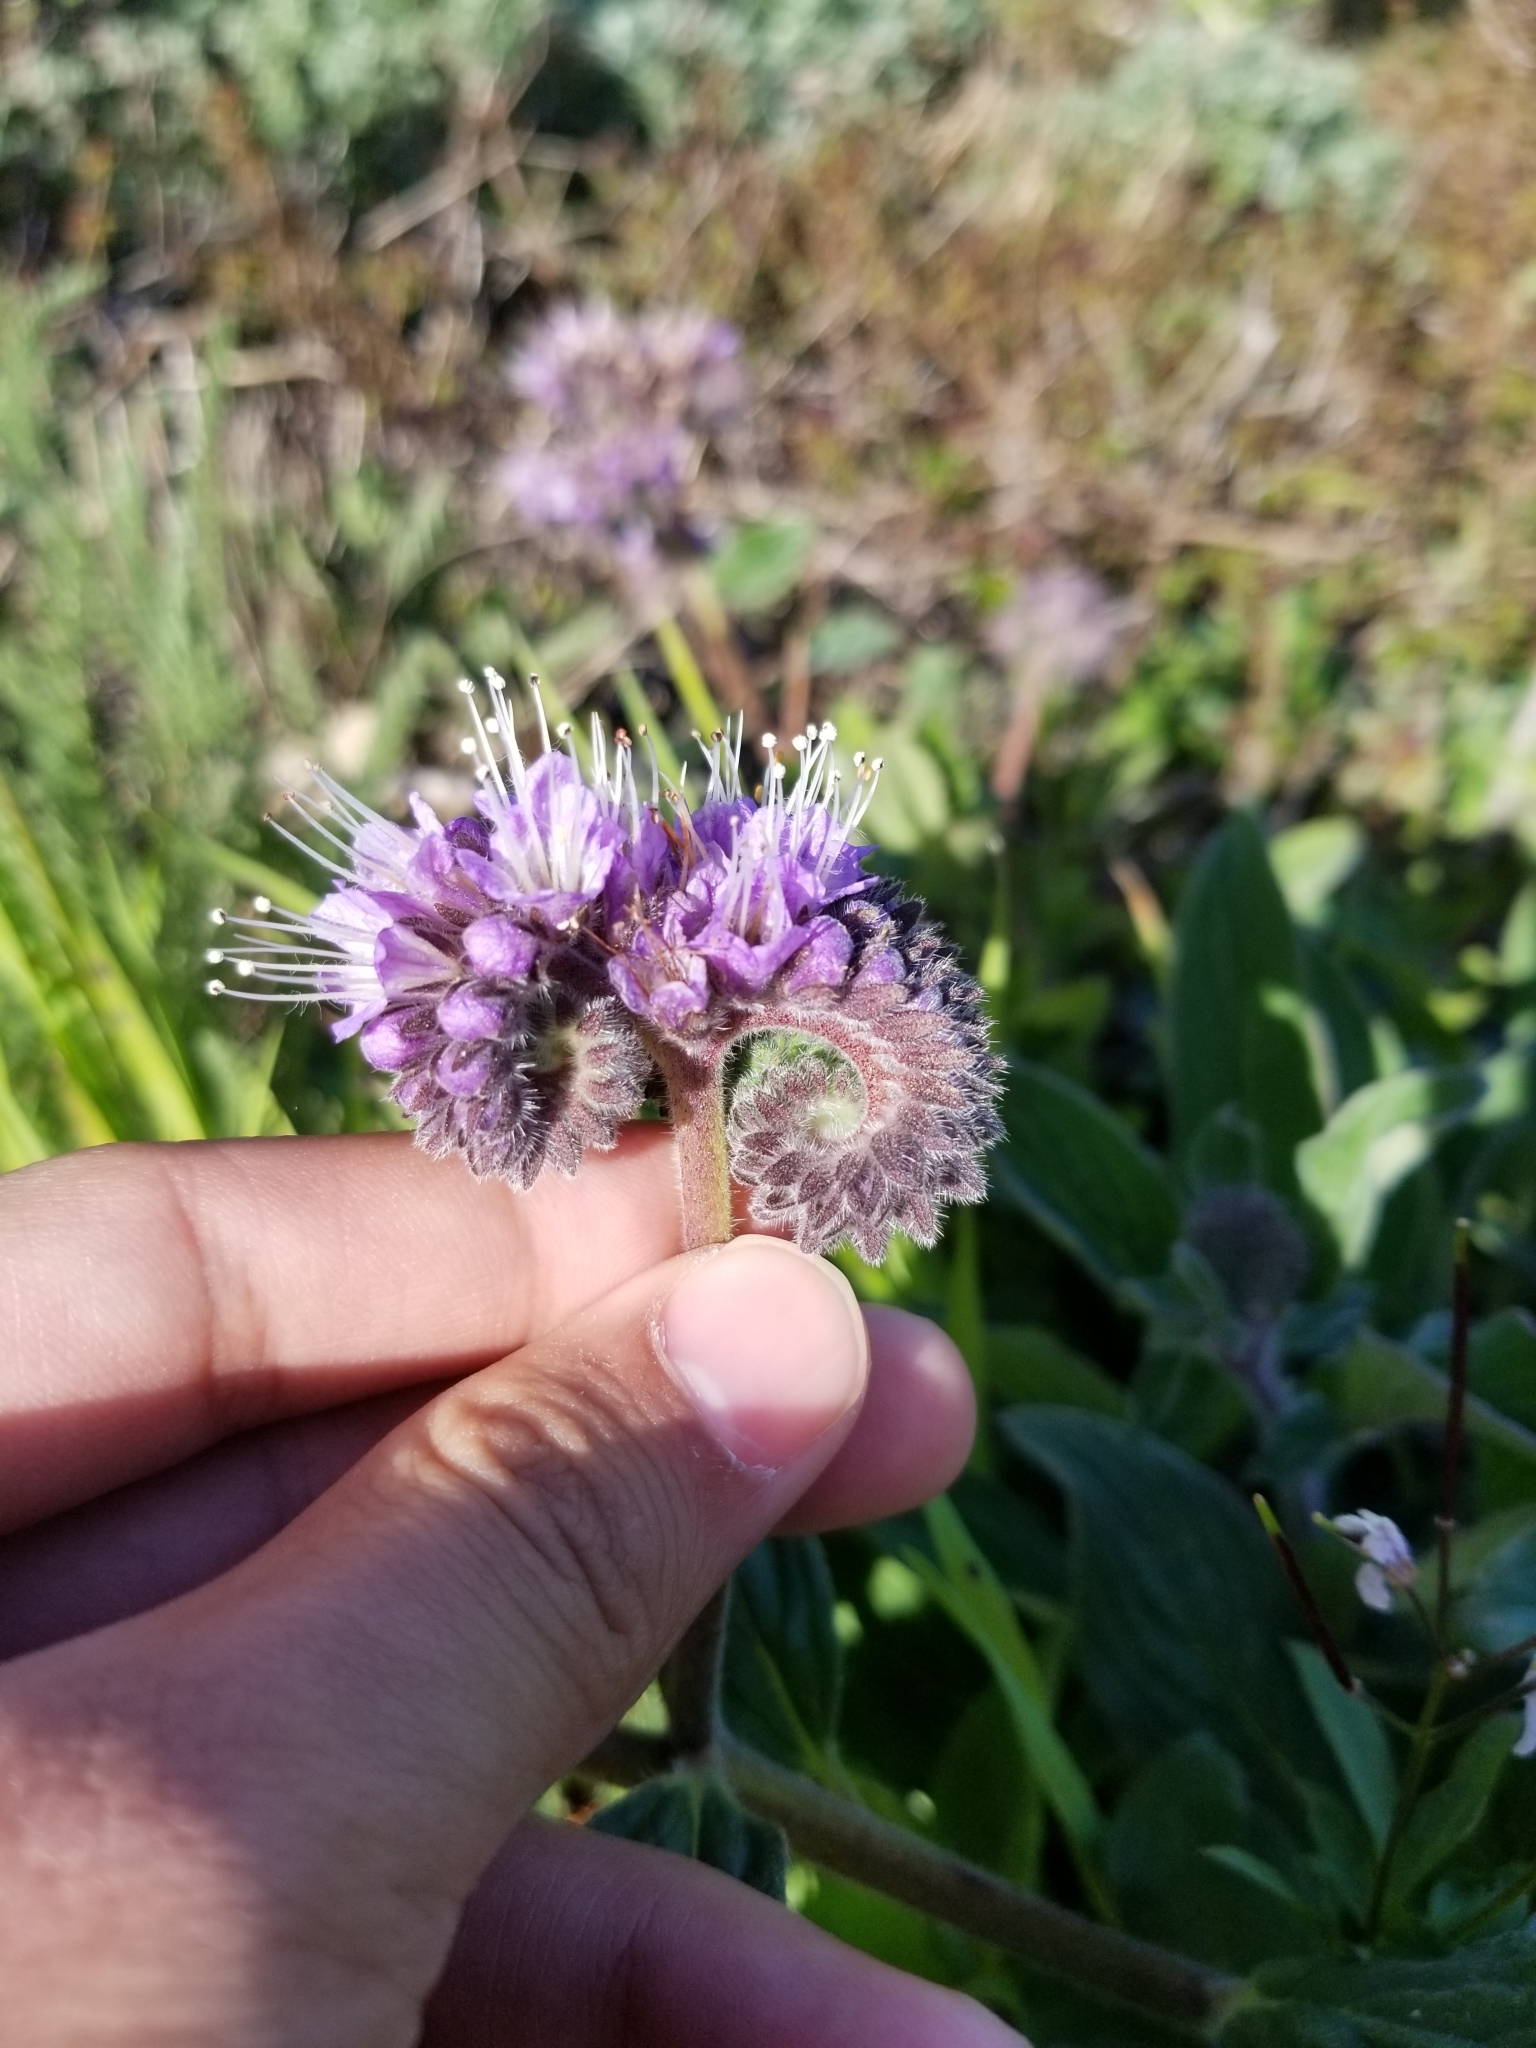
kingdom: Plantae
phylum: Tracheophyta
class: Magnoliopsida
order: Boraginales
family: Hydrophyllaceae
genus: Phacelia
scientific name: Phacelia californica
